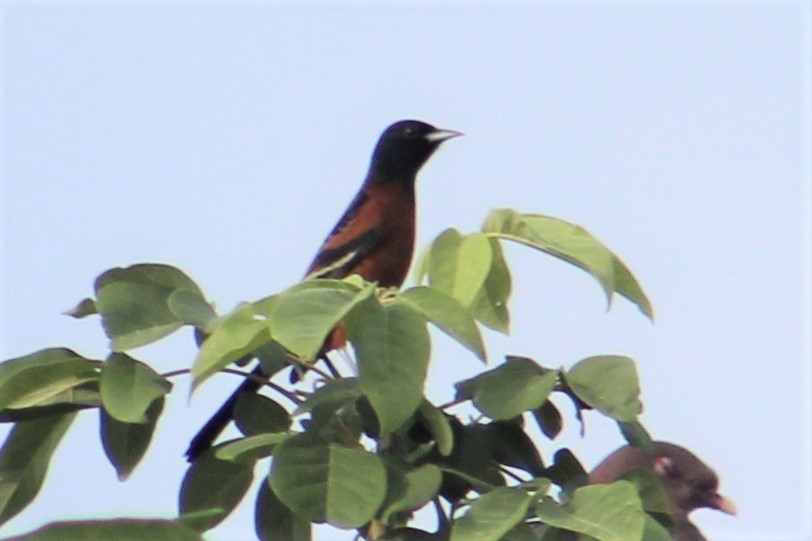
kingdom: Animalia
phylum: Chordata
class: Aves
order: Passeriformes
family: Icteridae
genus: Icterus
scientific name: Icterus spurius
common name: Orchard oriole
